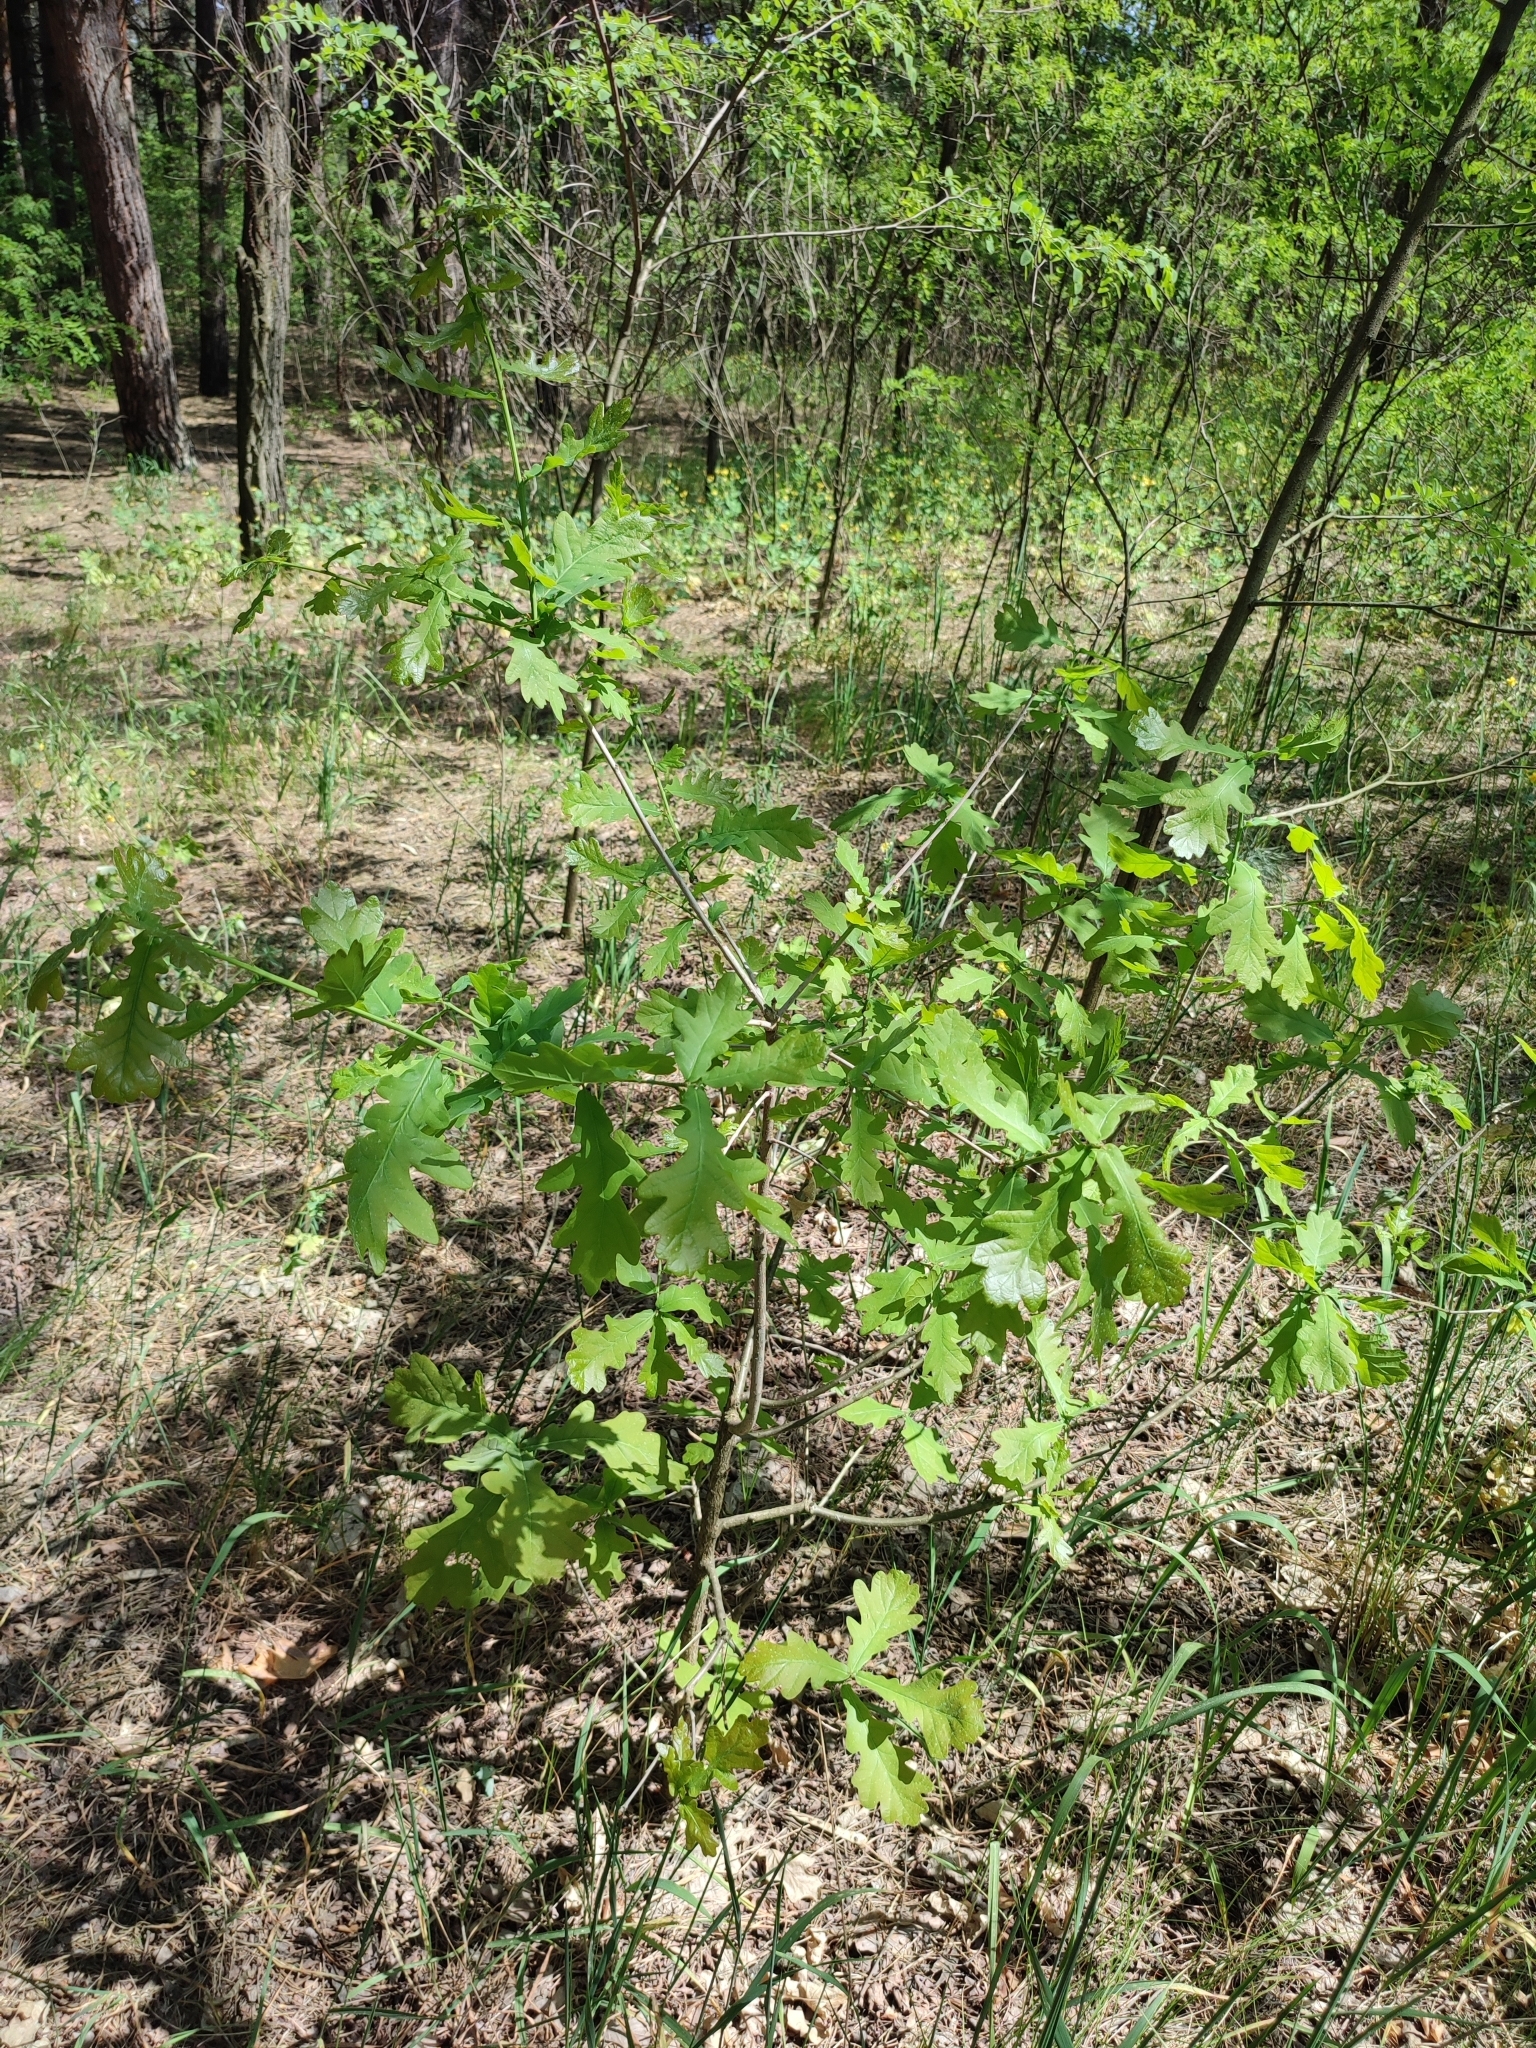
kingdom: Plantae
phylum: Tracheophyta
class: Magnoliopsida
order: Fagales
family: Fagaceae
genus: Quercus
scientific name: Quercus robur
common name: Pedunculate oak
